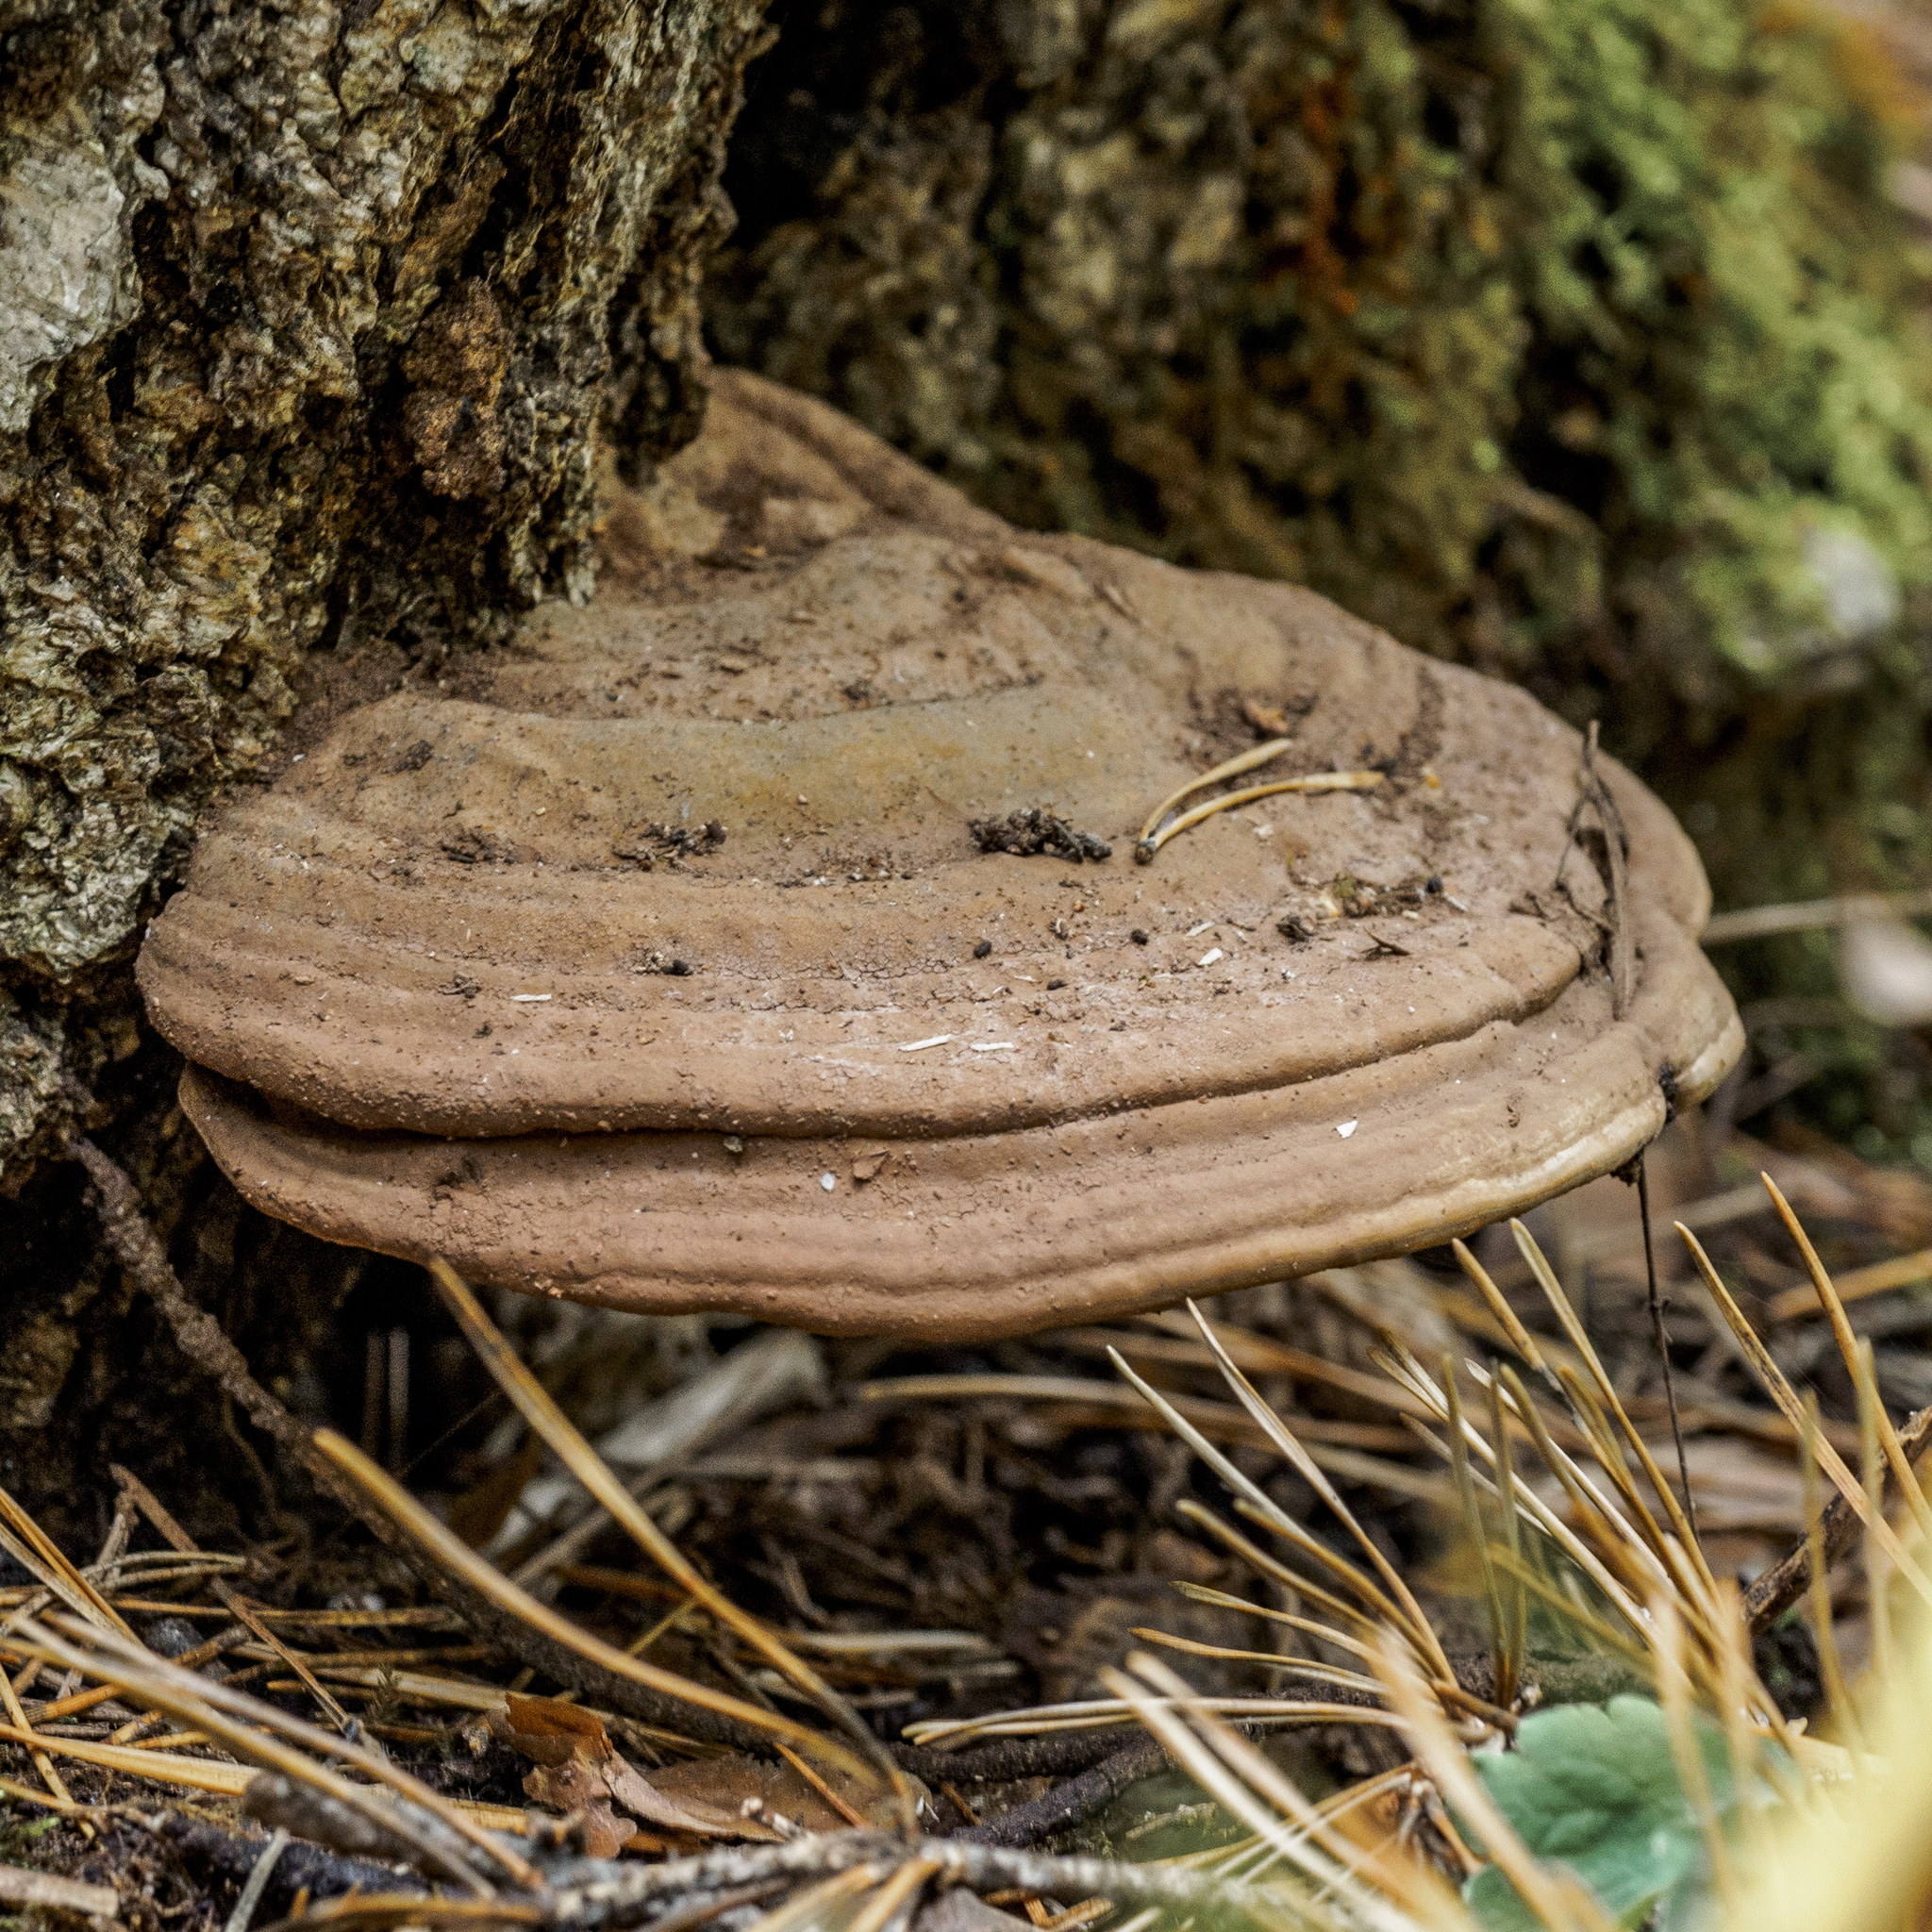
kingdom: Fungi
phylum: Basidiomycota
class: Agaricomycetes
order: Polyporales
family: Polyporaceae
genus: Ganoderma
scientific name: Ganoderma applanatum
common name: Artist's bracket
